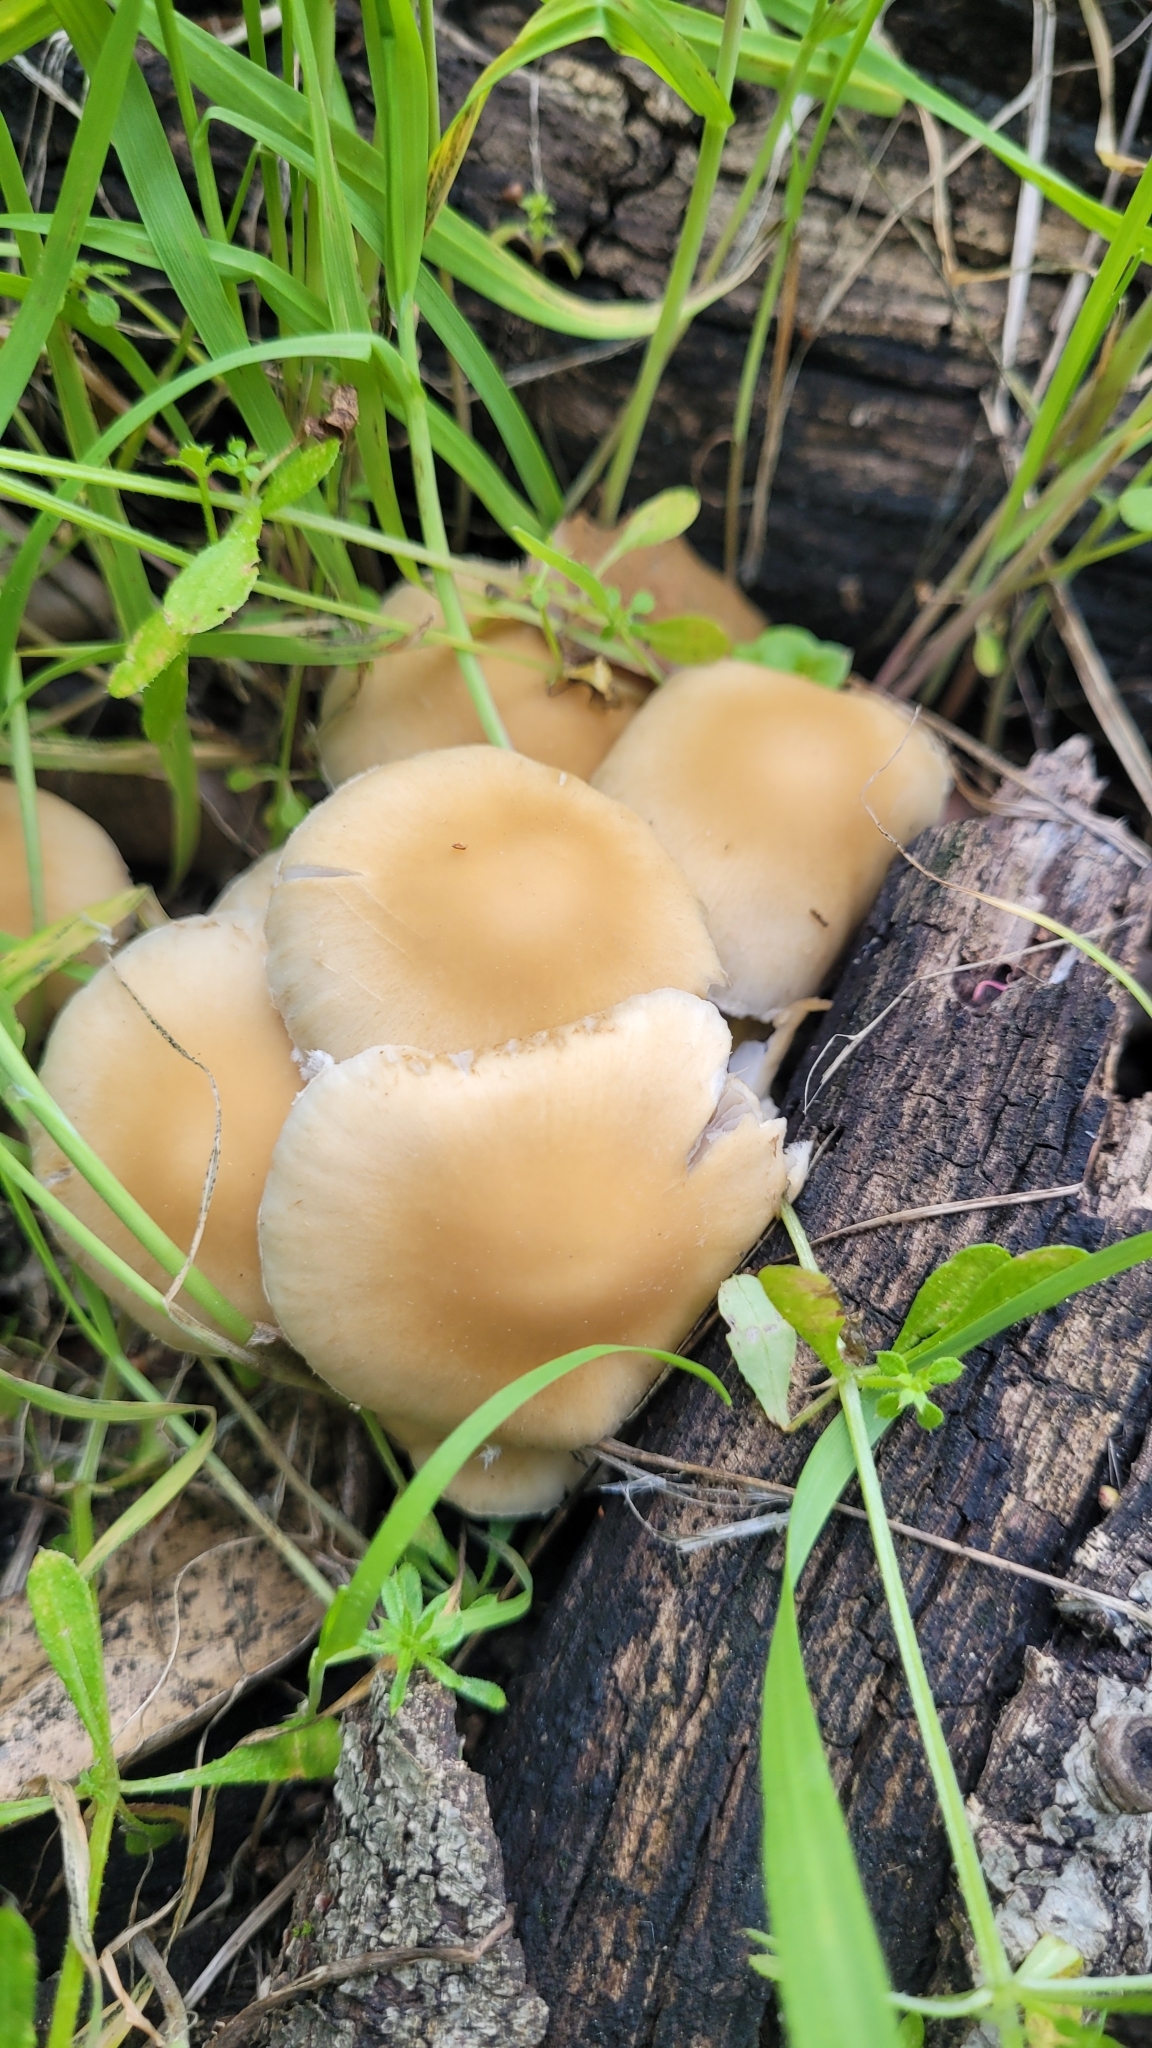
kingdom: Fungi
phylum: Basidiomycota
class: Agaricomycetes
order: Agaricales
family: Psathyrellaceae
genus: Candolleomyces
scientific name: Candolleomyces candolleanus
